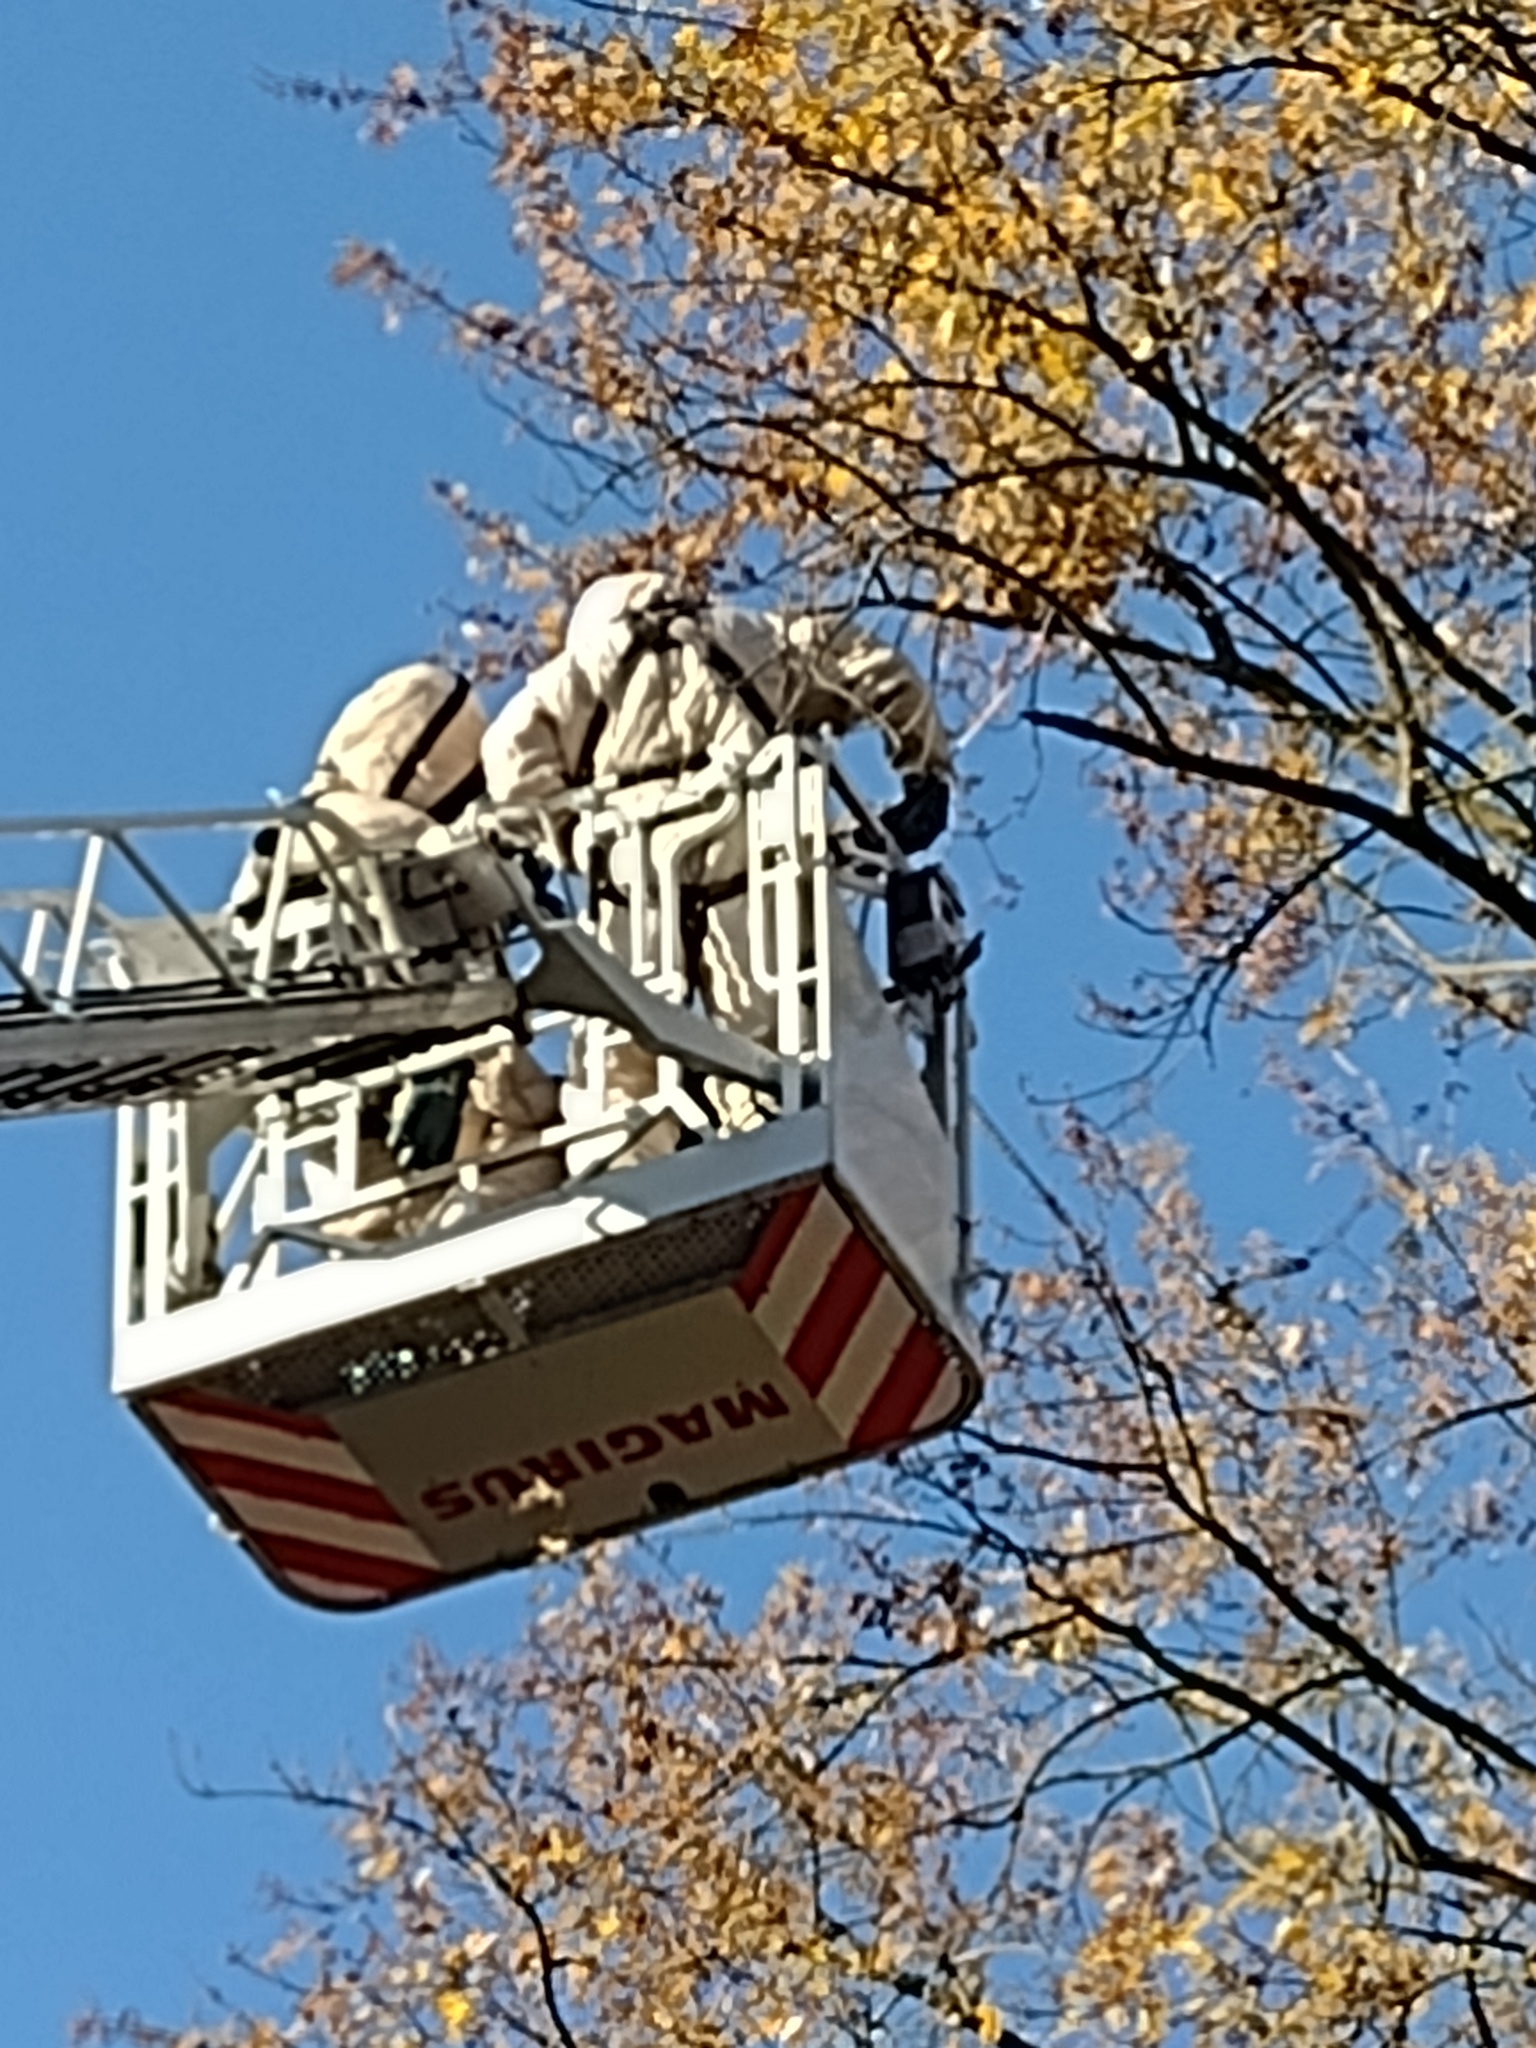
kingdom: Animalia
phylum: Arthropoda
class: Insecta
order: Hymenoptera
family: Vespidae
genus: Vespa
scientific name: Vespa velutina
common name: Asian hornet
